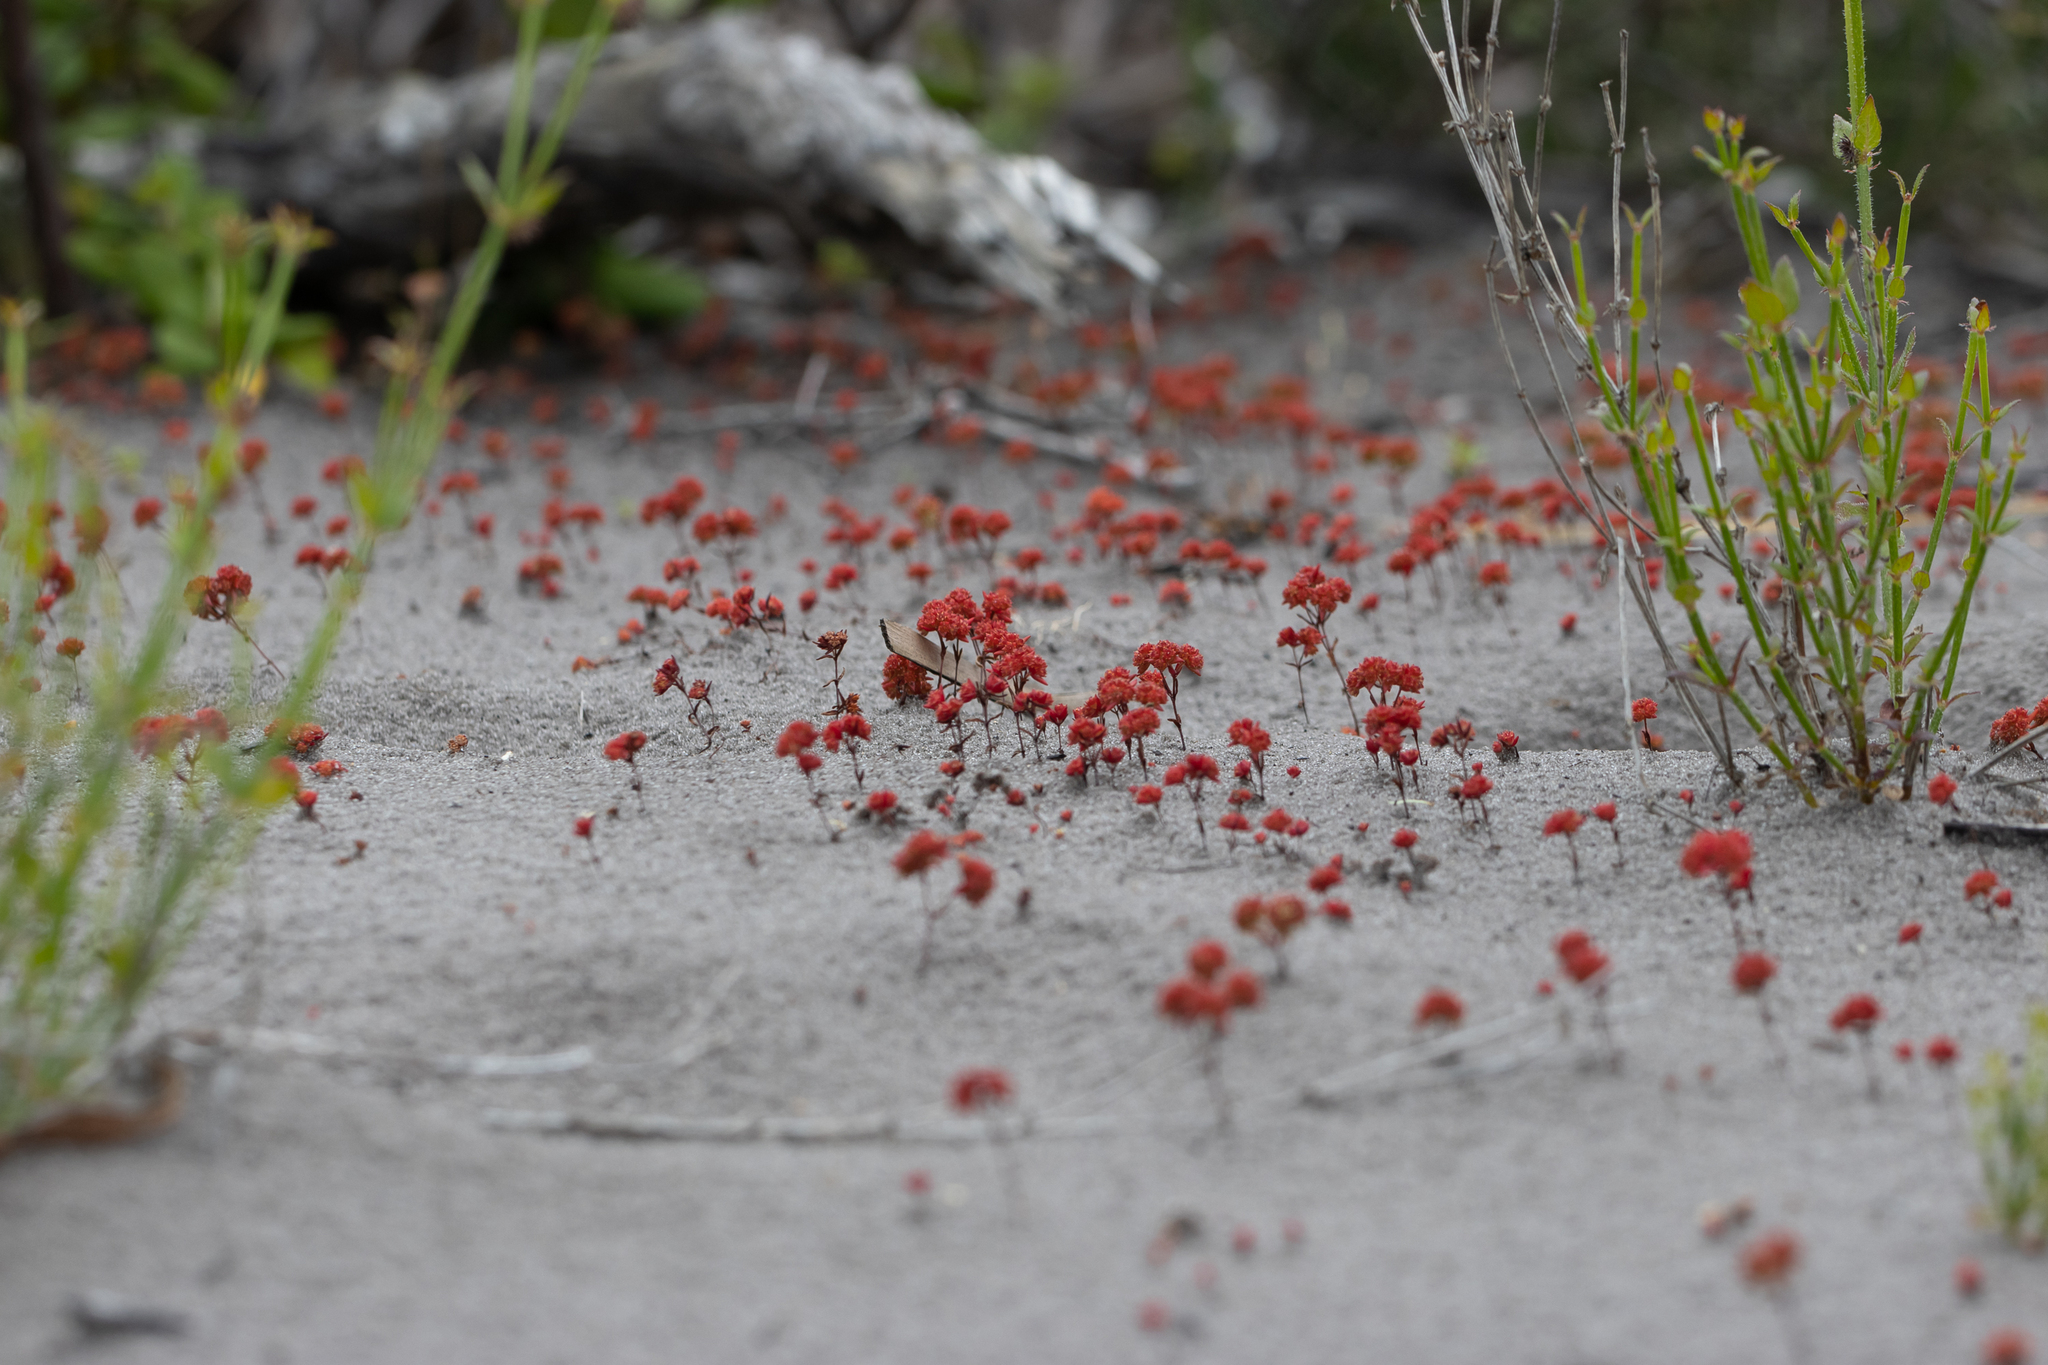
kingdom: Plantae
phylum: Tracheophyta
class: Magnoliopsida
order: Saxifragales
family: Crassulaceae
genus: Crassula
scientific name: Crassula glomerata
